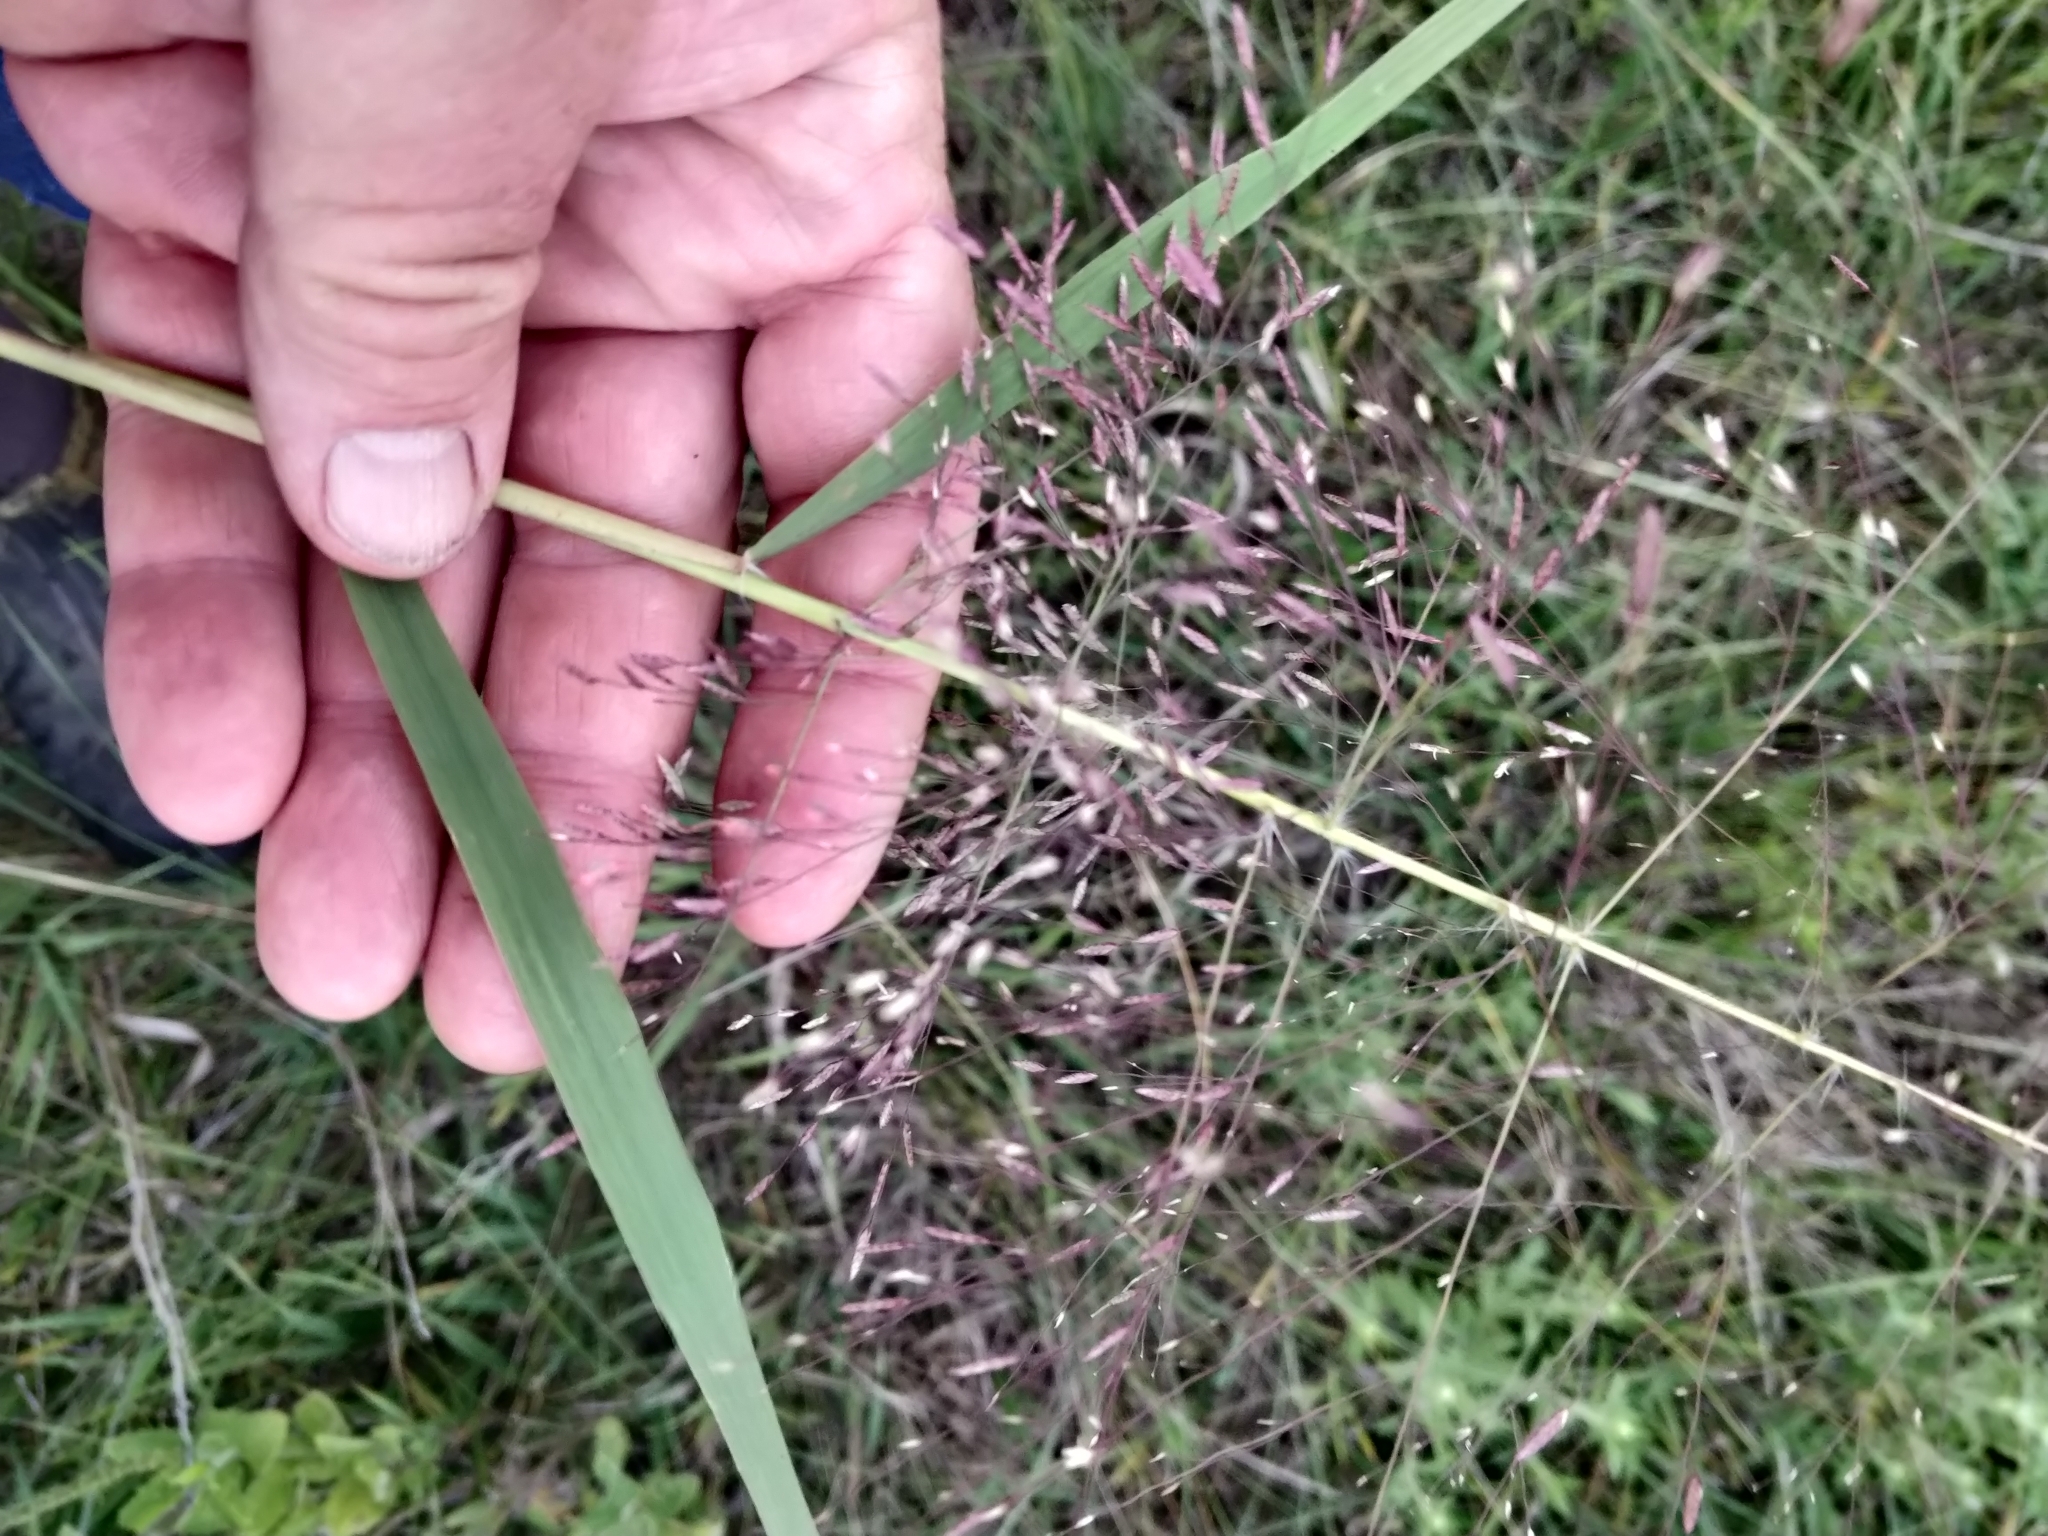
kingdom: Plantae
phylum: Tracheophyta
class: Liliopsida
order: Poales
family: Poaceae
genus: Eragrostis
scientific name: Eragrostis spectabilis
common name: Petticoat-climber
